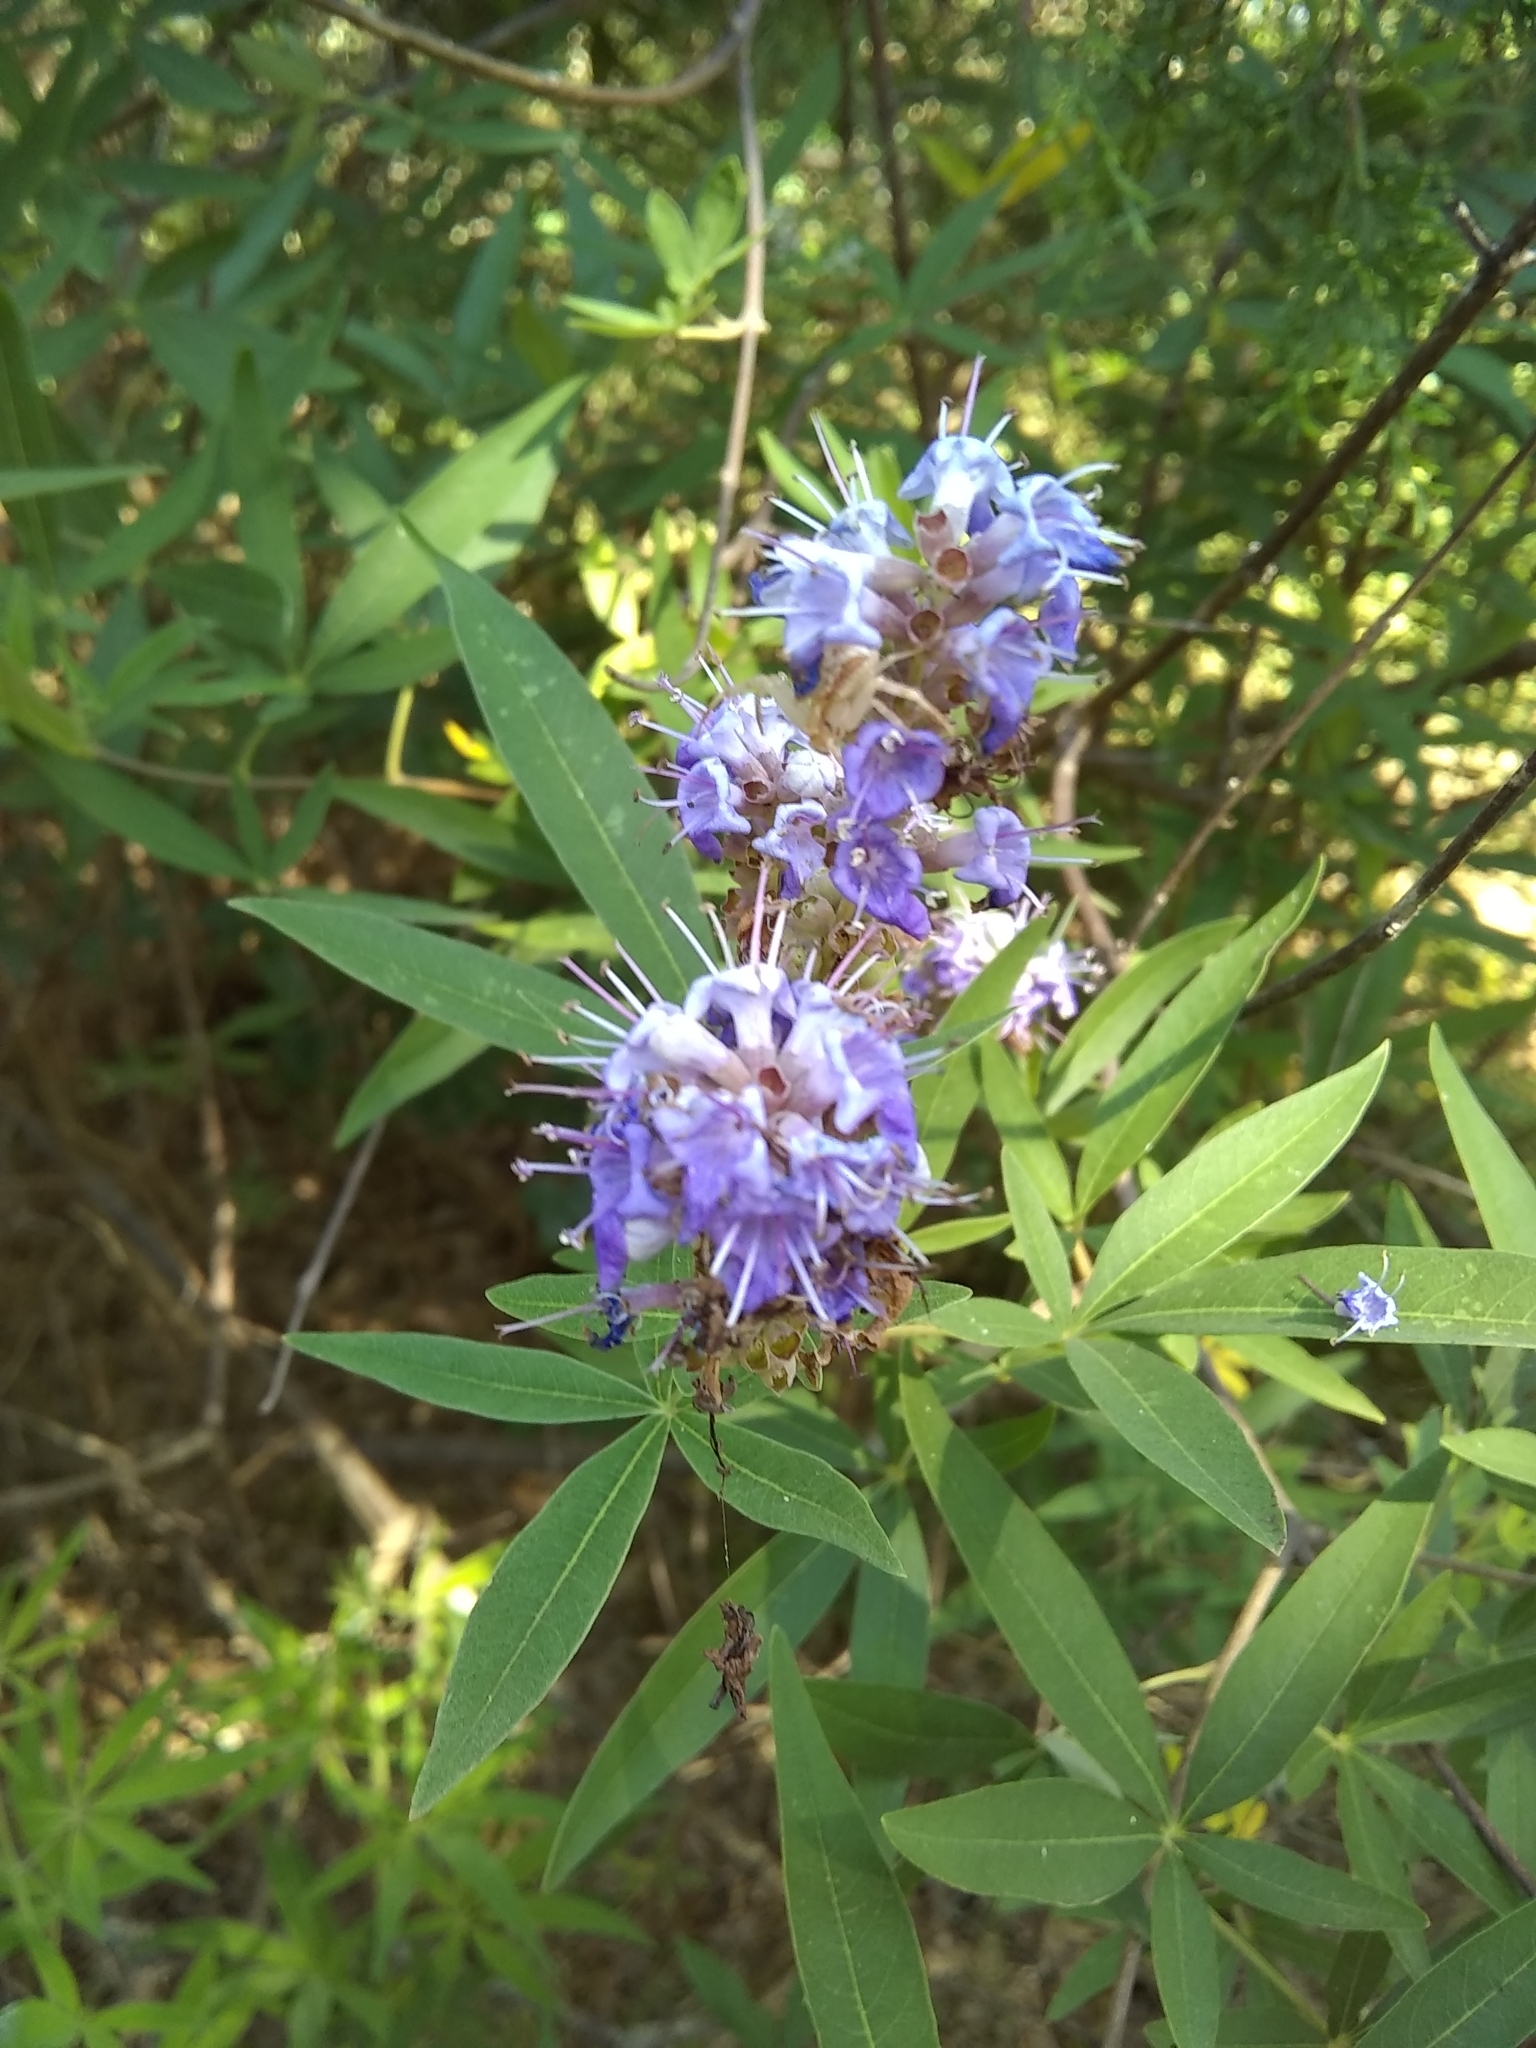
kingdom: Plantae
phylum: Tracheophyta
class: Magnoliopsida
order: Lamiales
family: Lamiaceae
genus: Vitex
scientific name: Vitex agnus-castus
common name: Chasteberry
